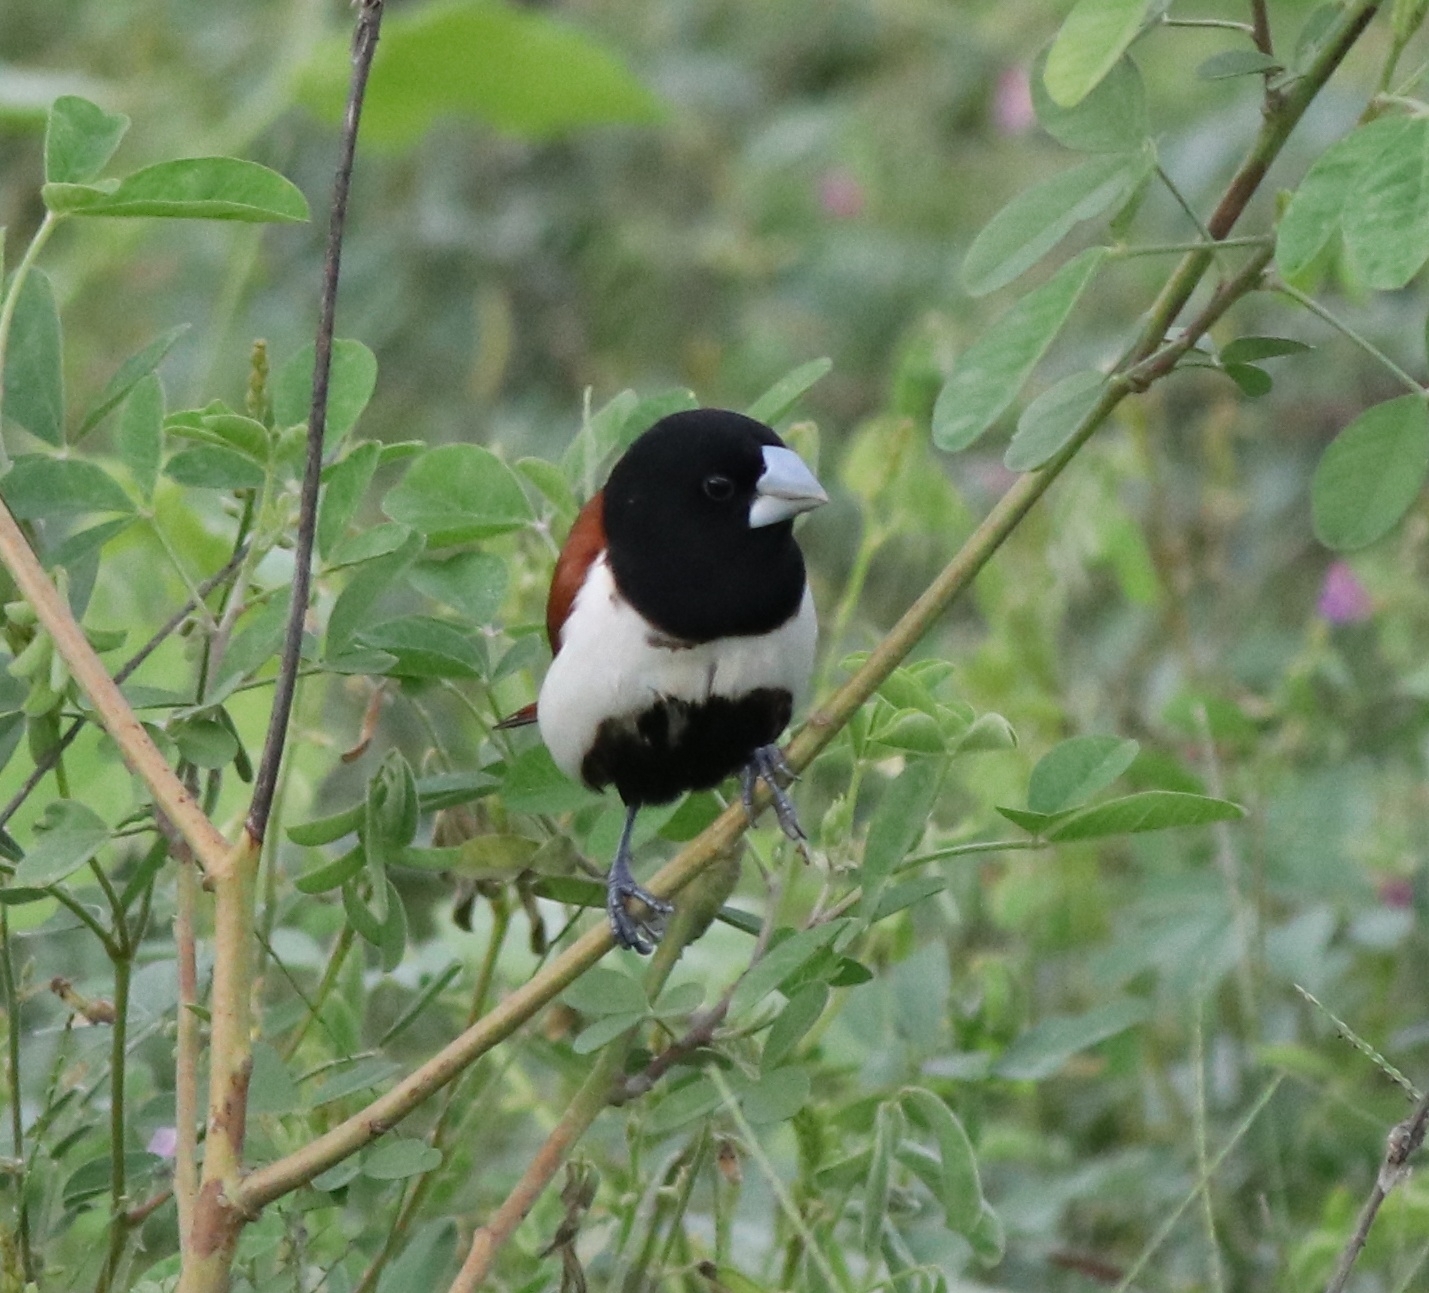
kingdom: Animalia
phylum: Chordata
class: Aves
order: Passeriformes
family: Estrildidae
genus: Lonchura
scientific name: Lonchura malacca
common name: Tricolored munia
